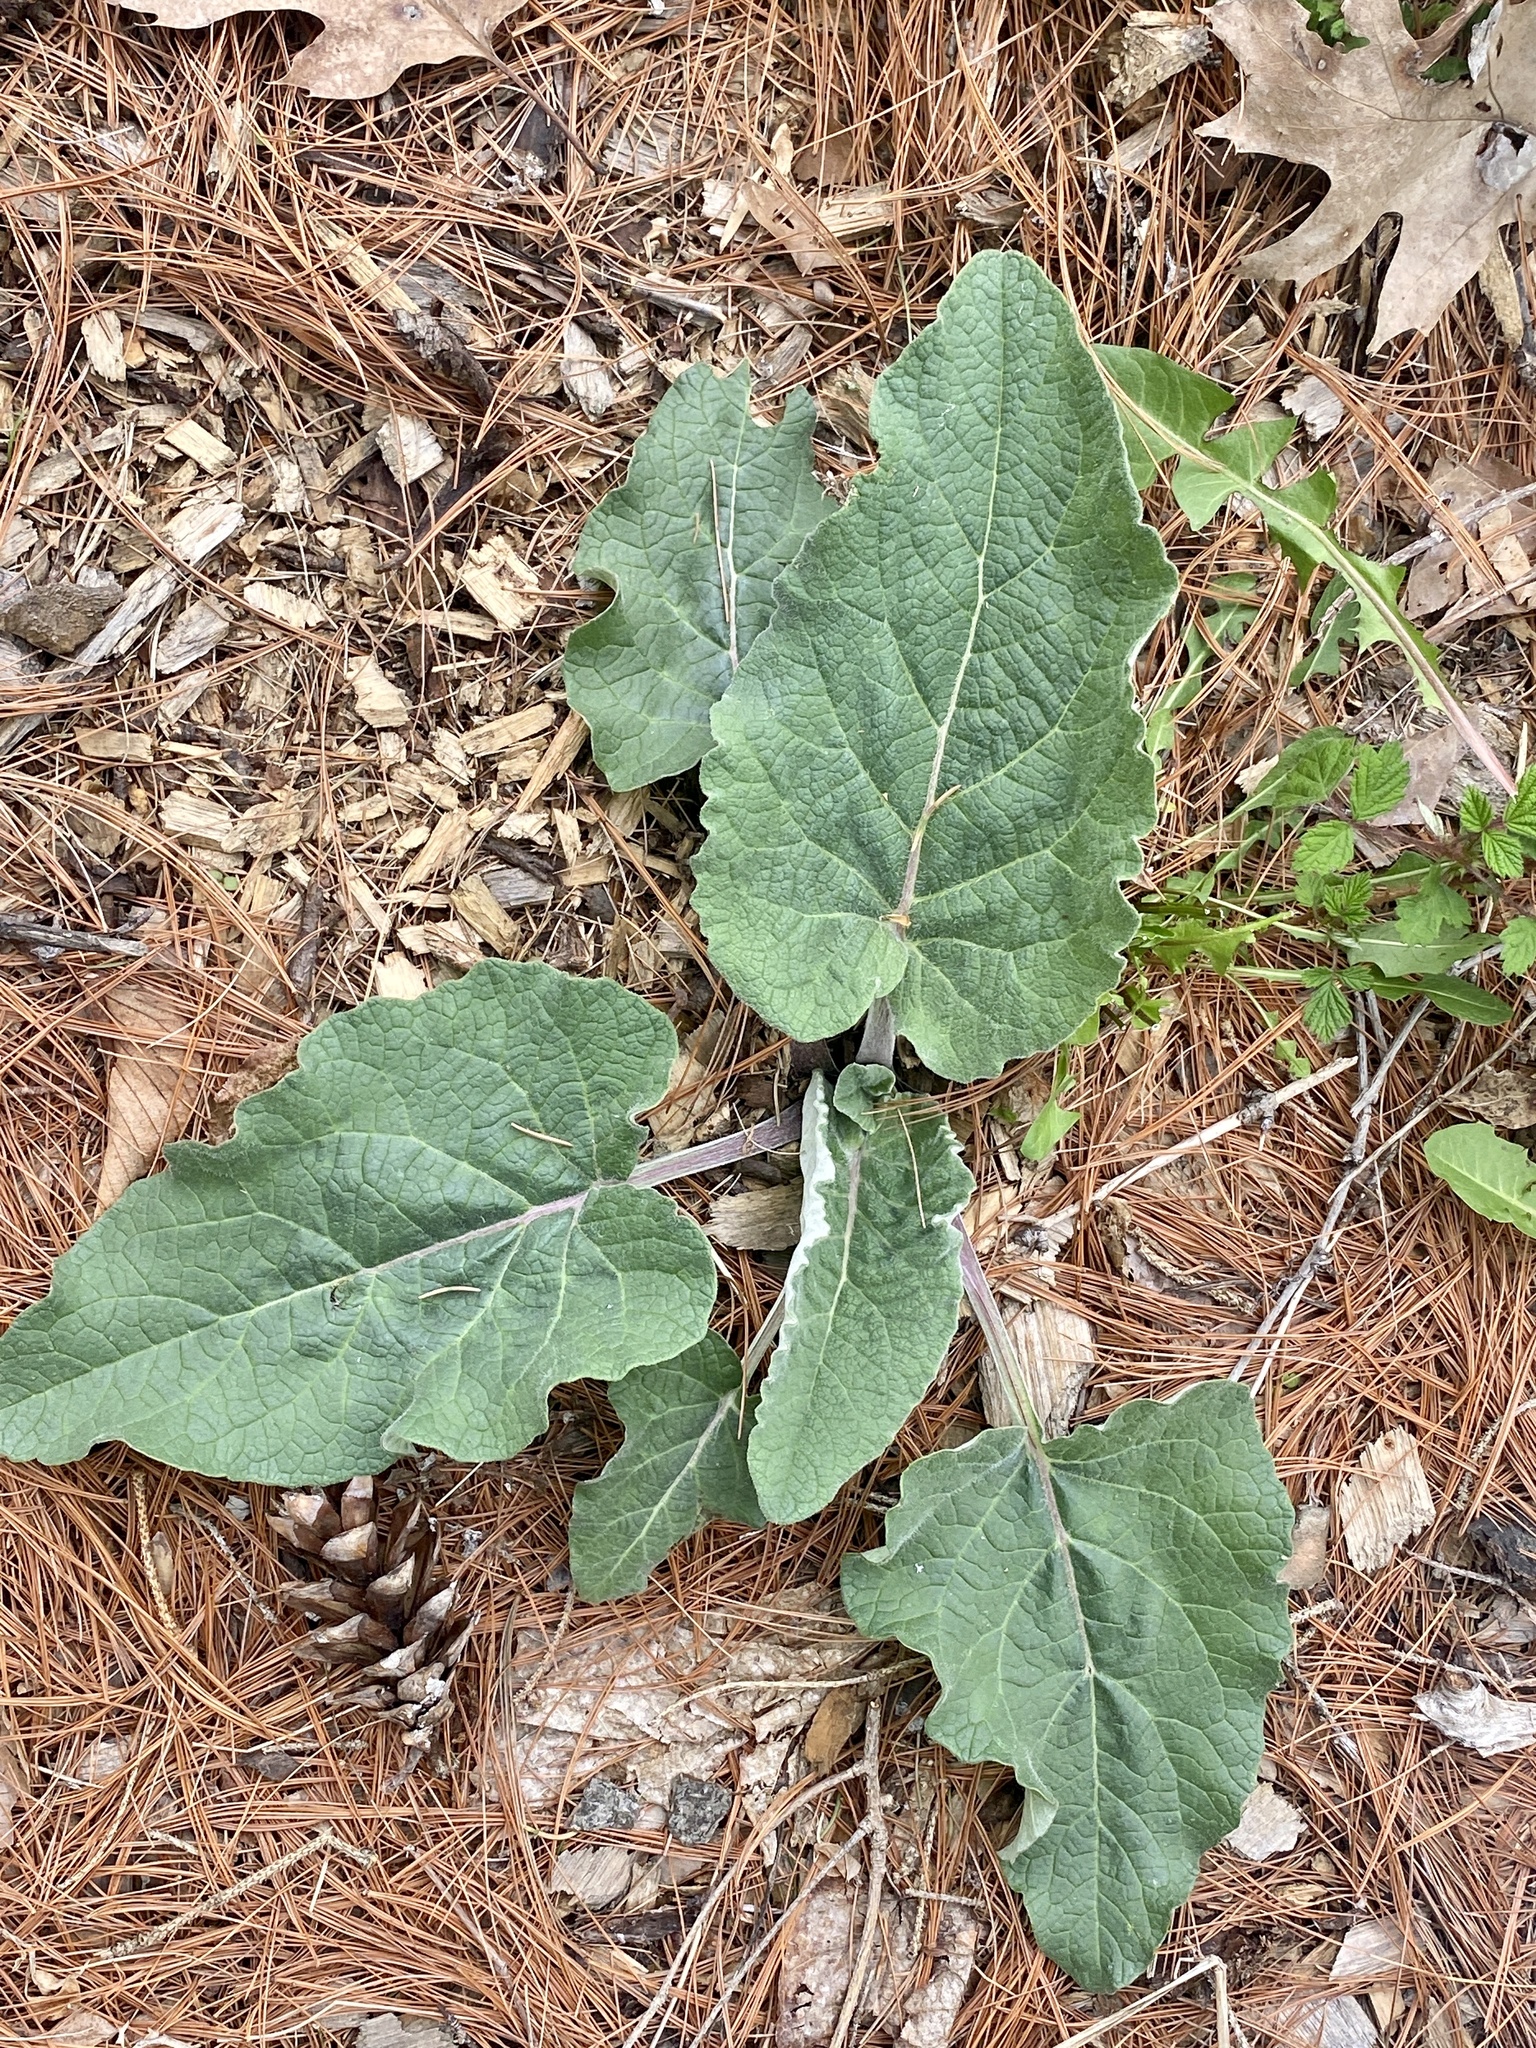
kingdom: Plantae
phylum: Tracheophyta
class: Magnoliopsida
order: Asterales
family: Asteraceae
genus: Arctium
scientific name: Arctium minus
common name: Lesser burdock
